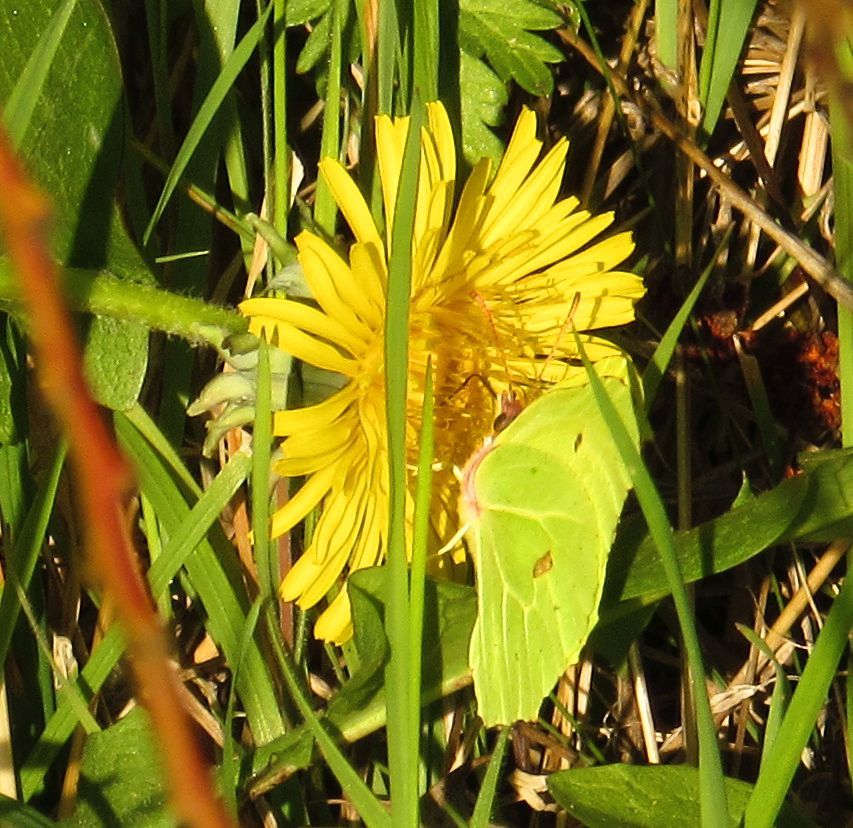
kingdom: Animalia
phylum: Arthropoda
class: Insecta
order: Lepidoptera
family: Pieridae
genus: Gonepteryx
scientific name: Gonepteryx rhamni
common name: Brimstone
